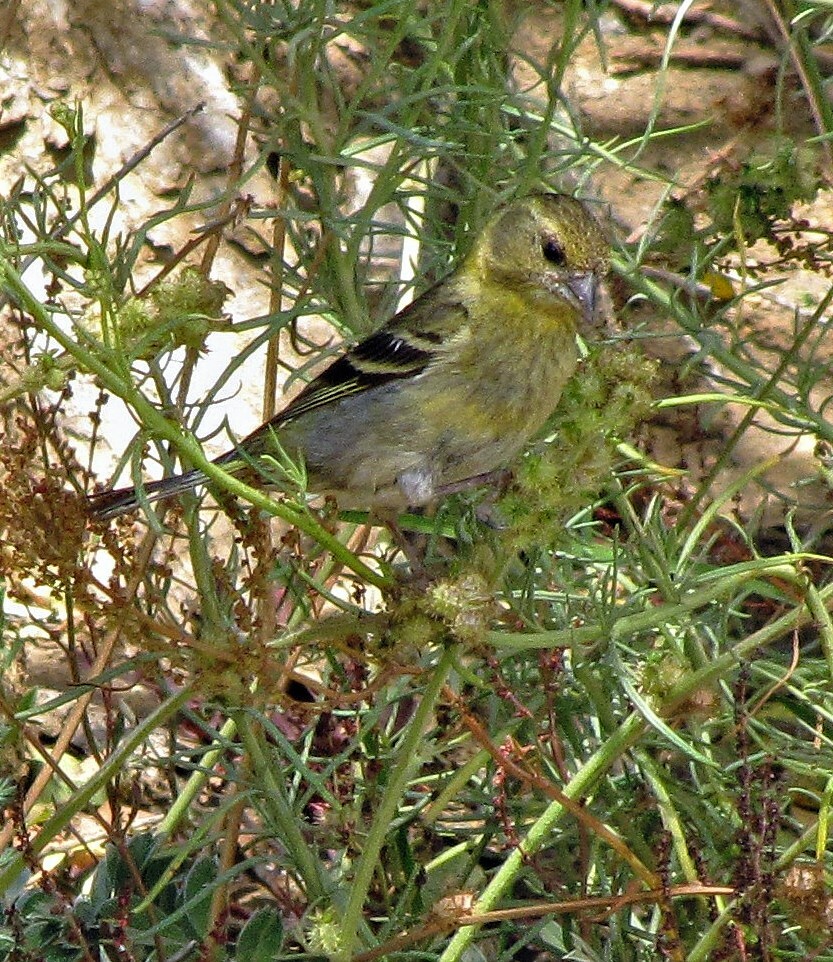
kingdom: Animalia
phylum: Chordata
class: Aves
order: Passeriformes
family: Fringillidae
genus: Spinus
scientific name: Spinus barbatus
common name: Black-chinned siskin
